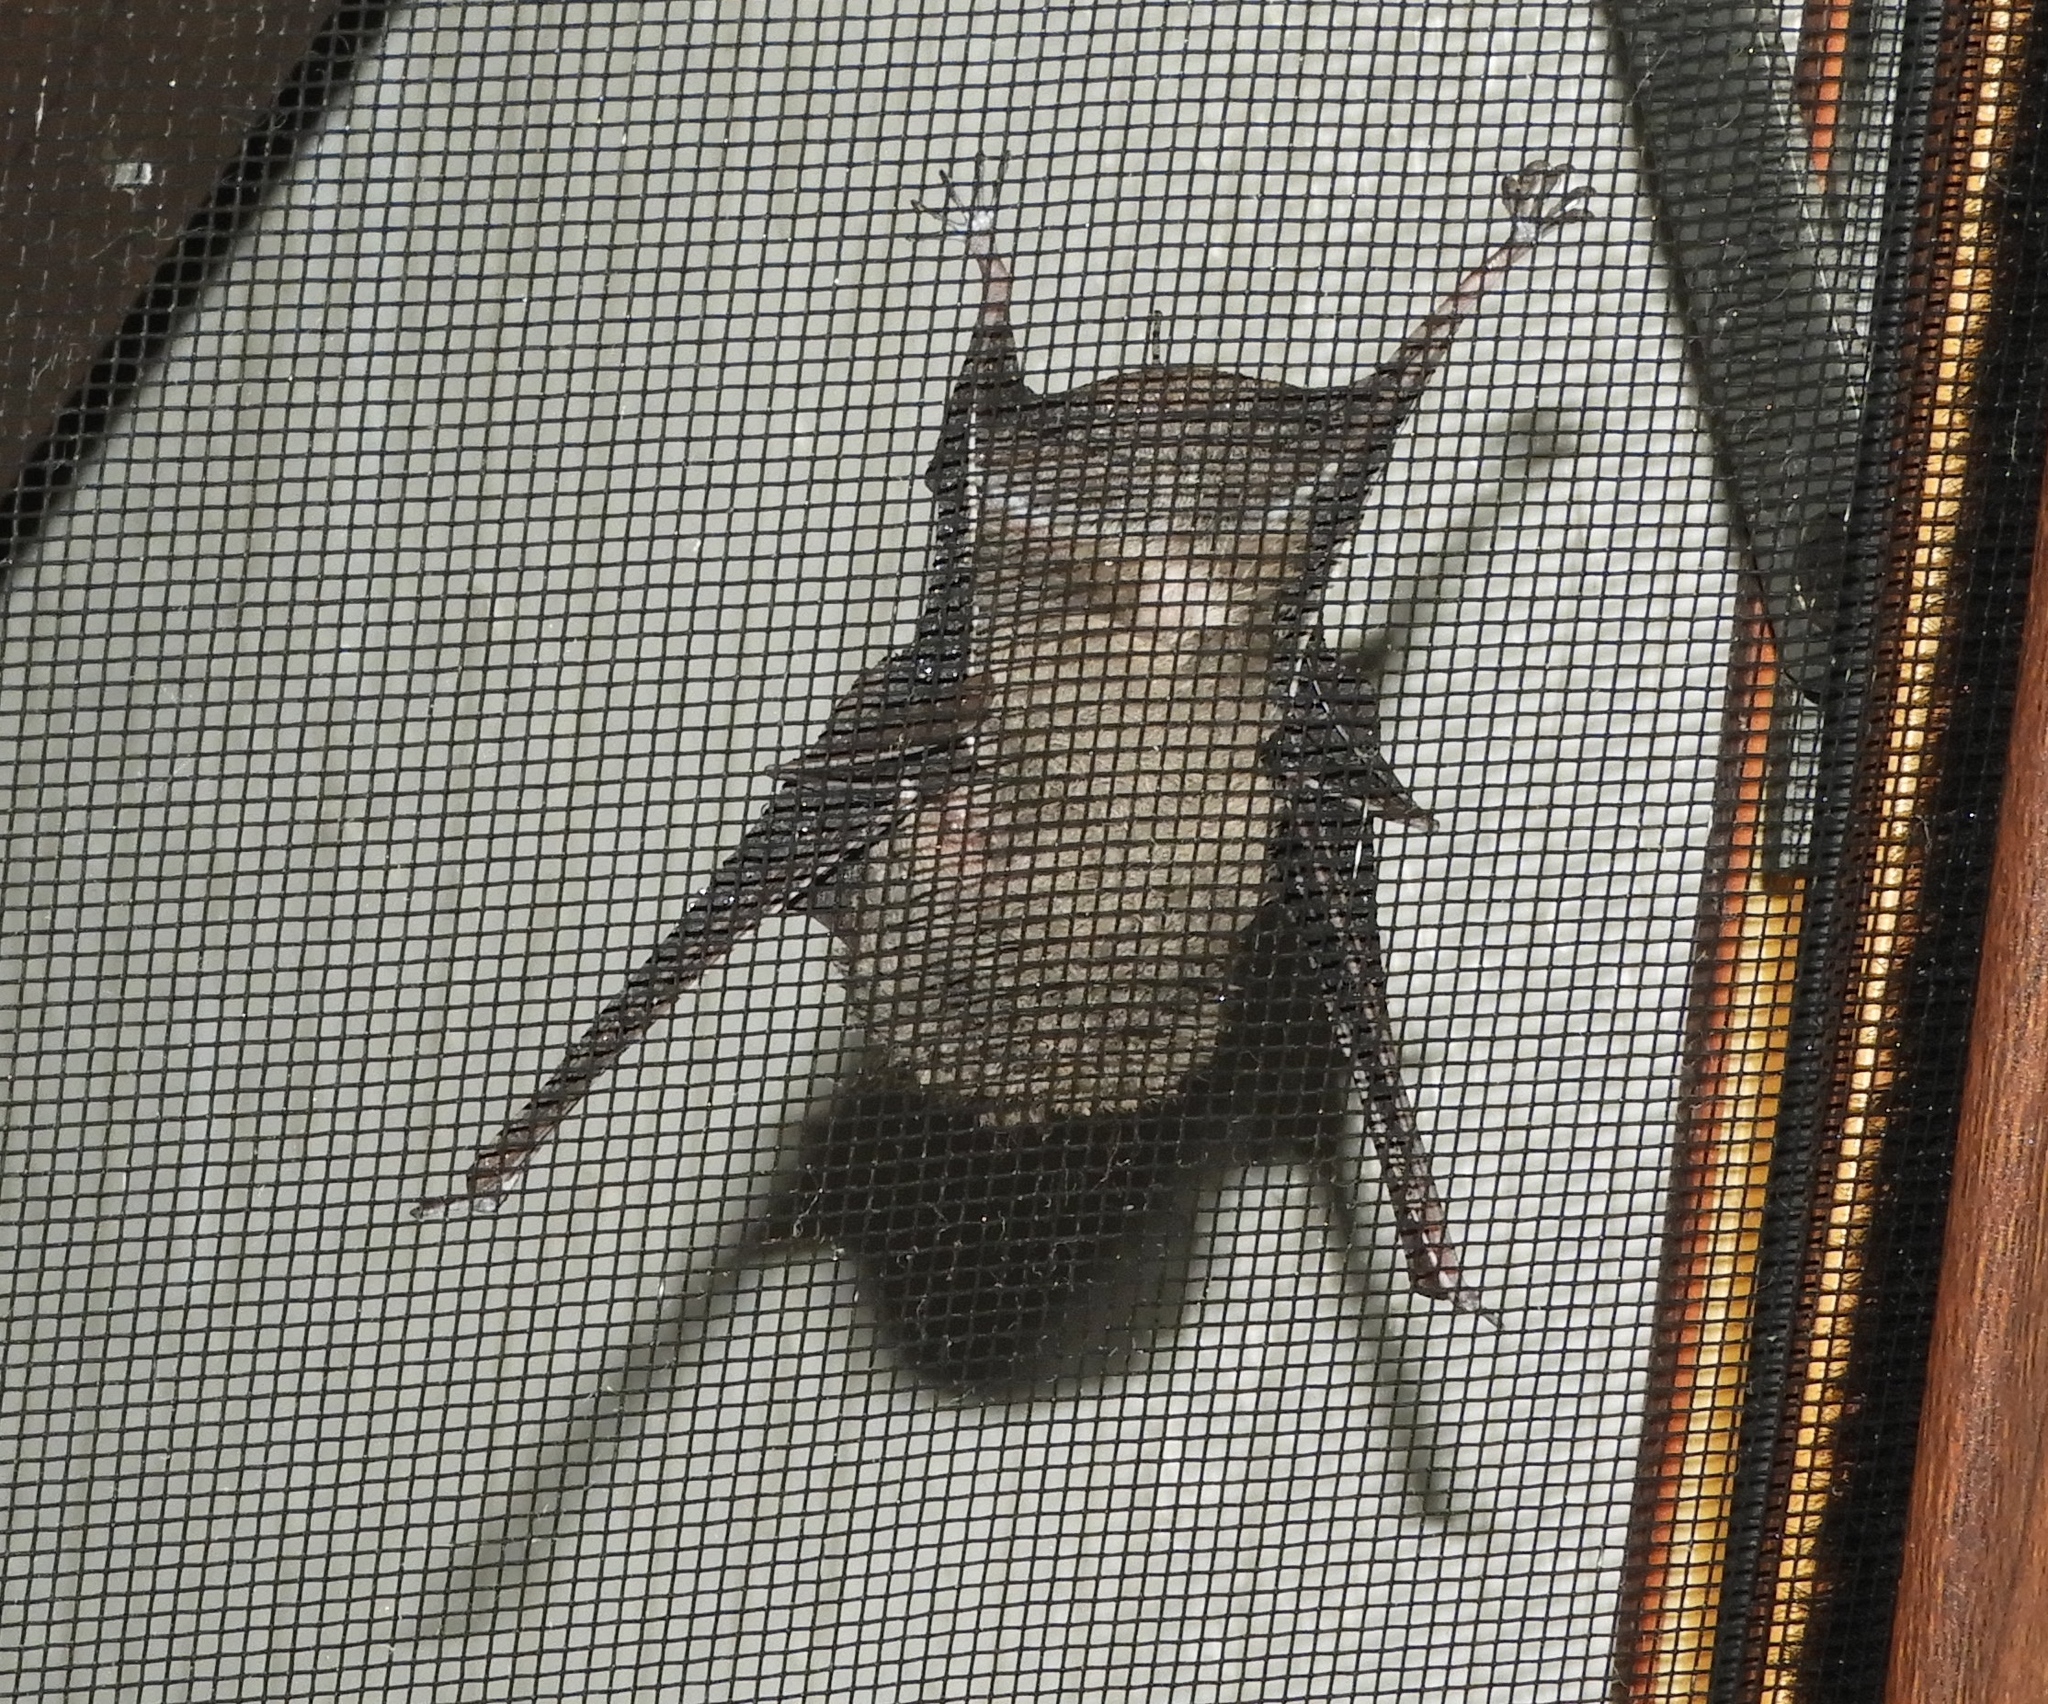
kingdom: Animalia
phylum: Chordata
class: Mammalia
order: Chiroptera
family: Emballonuridae
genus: Balantiopteryx
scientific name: Balantiopteryx plicata
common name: Gray sac-winged bat
